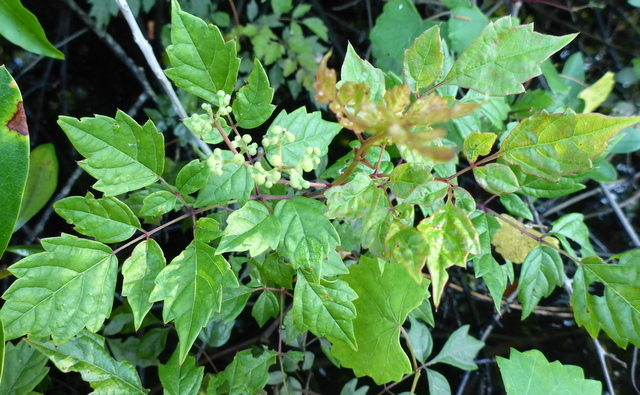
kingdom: Plantae
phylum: Tracheophyta
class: Magnoliopsida
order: Vitales
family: Vitaceae
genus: Nekemias
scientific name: Nekemias arborea
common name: Peppervine
